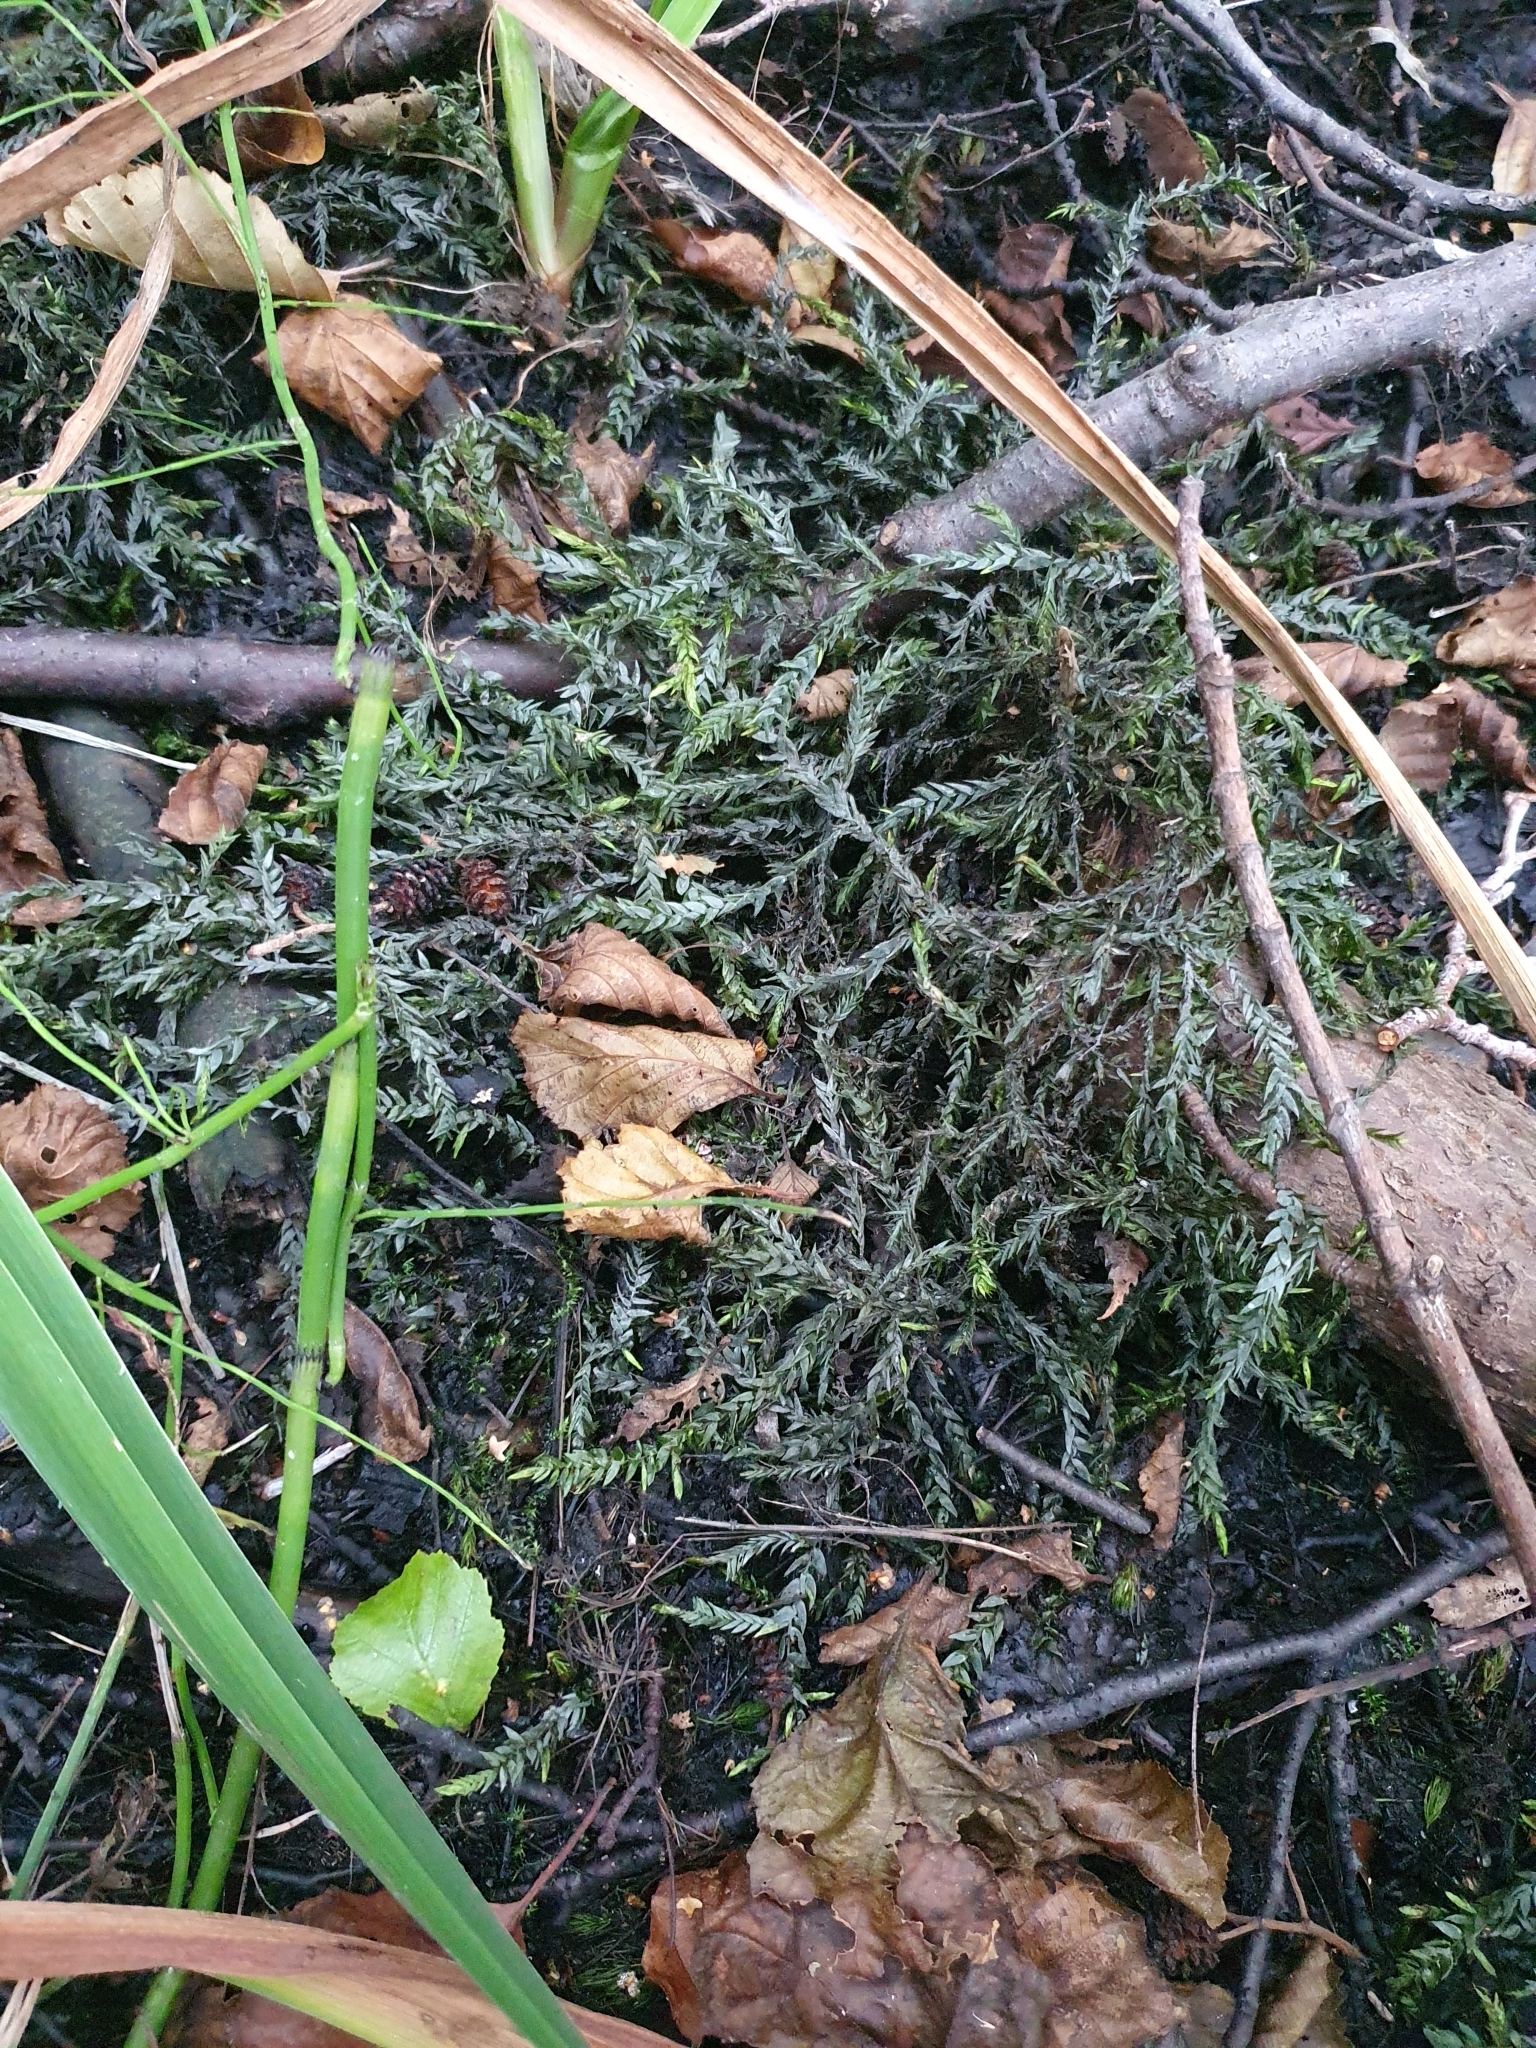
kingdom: Plantae
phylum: Bryophyta
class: Bryopsida
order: Hypnales
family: Fontinalaceae
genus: Fontinalis
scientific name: Fontinalis antipyretica
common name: Greater water-moss
